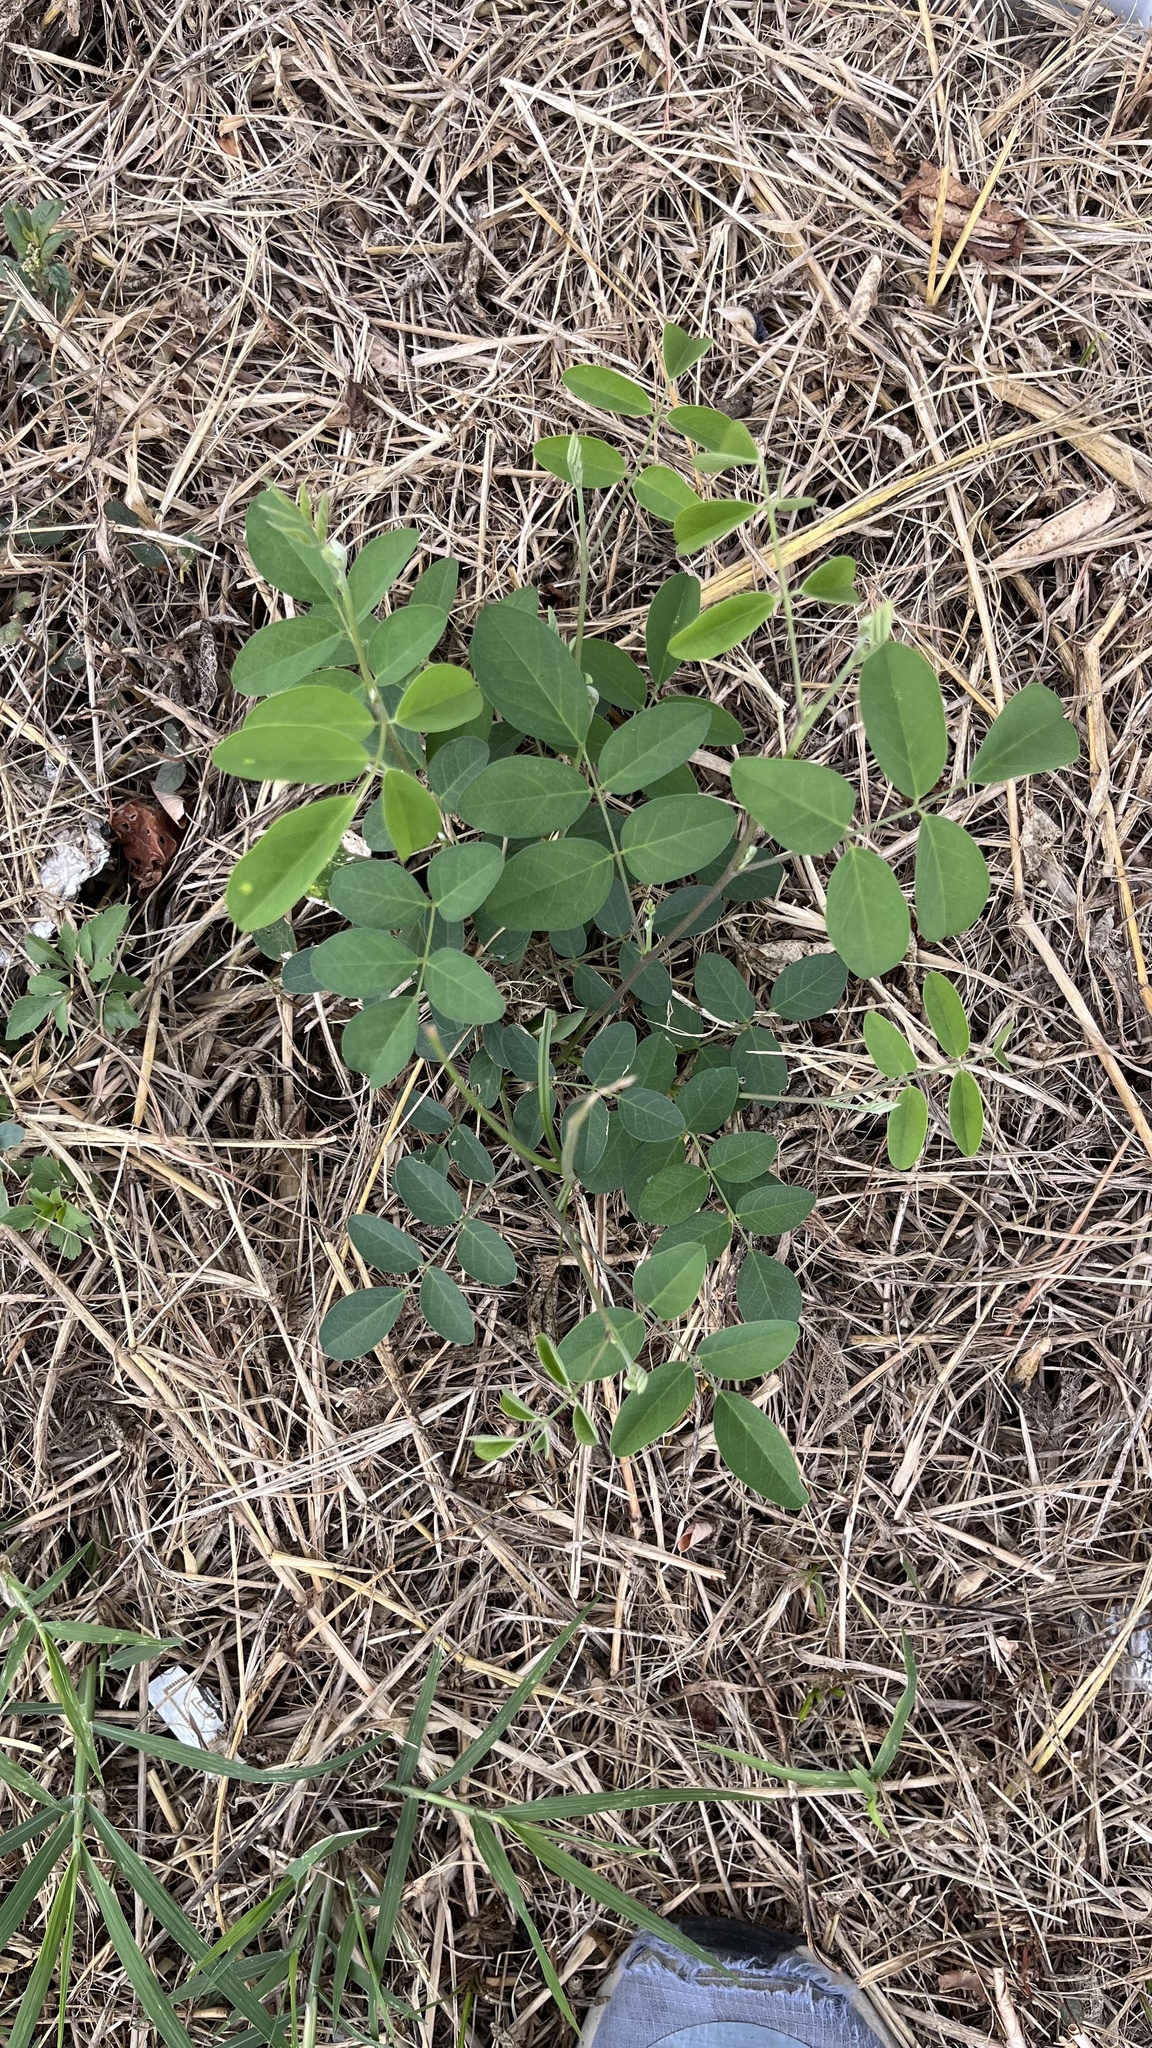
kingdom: Plantae
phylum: Tracheophyta
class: Magnoliopsida
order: Fabales
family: Fabaceae
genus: Clitoria
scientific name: Clitoria ternatea
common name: Asian pigeonwings
